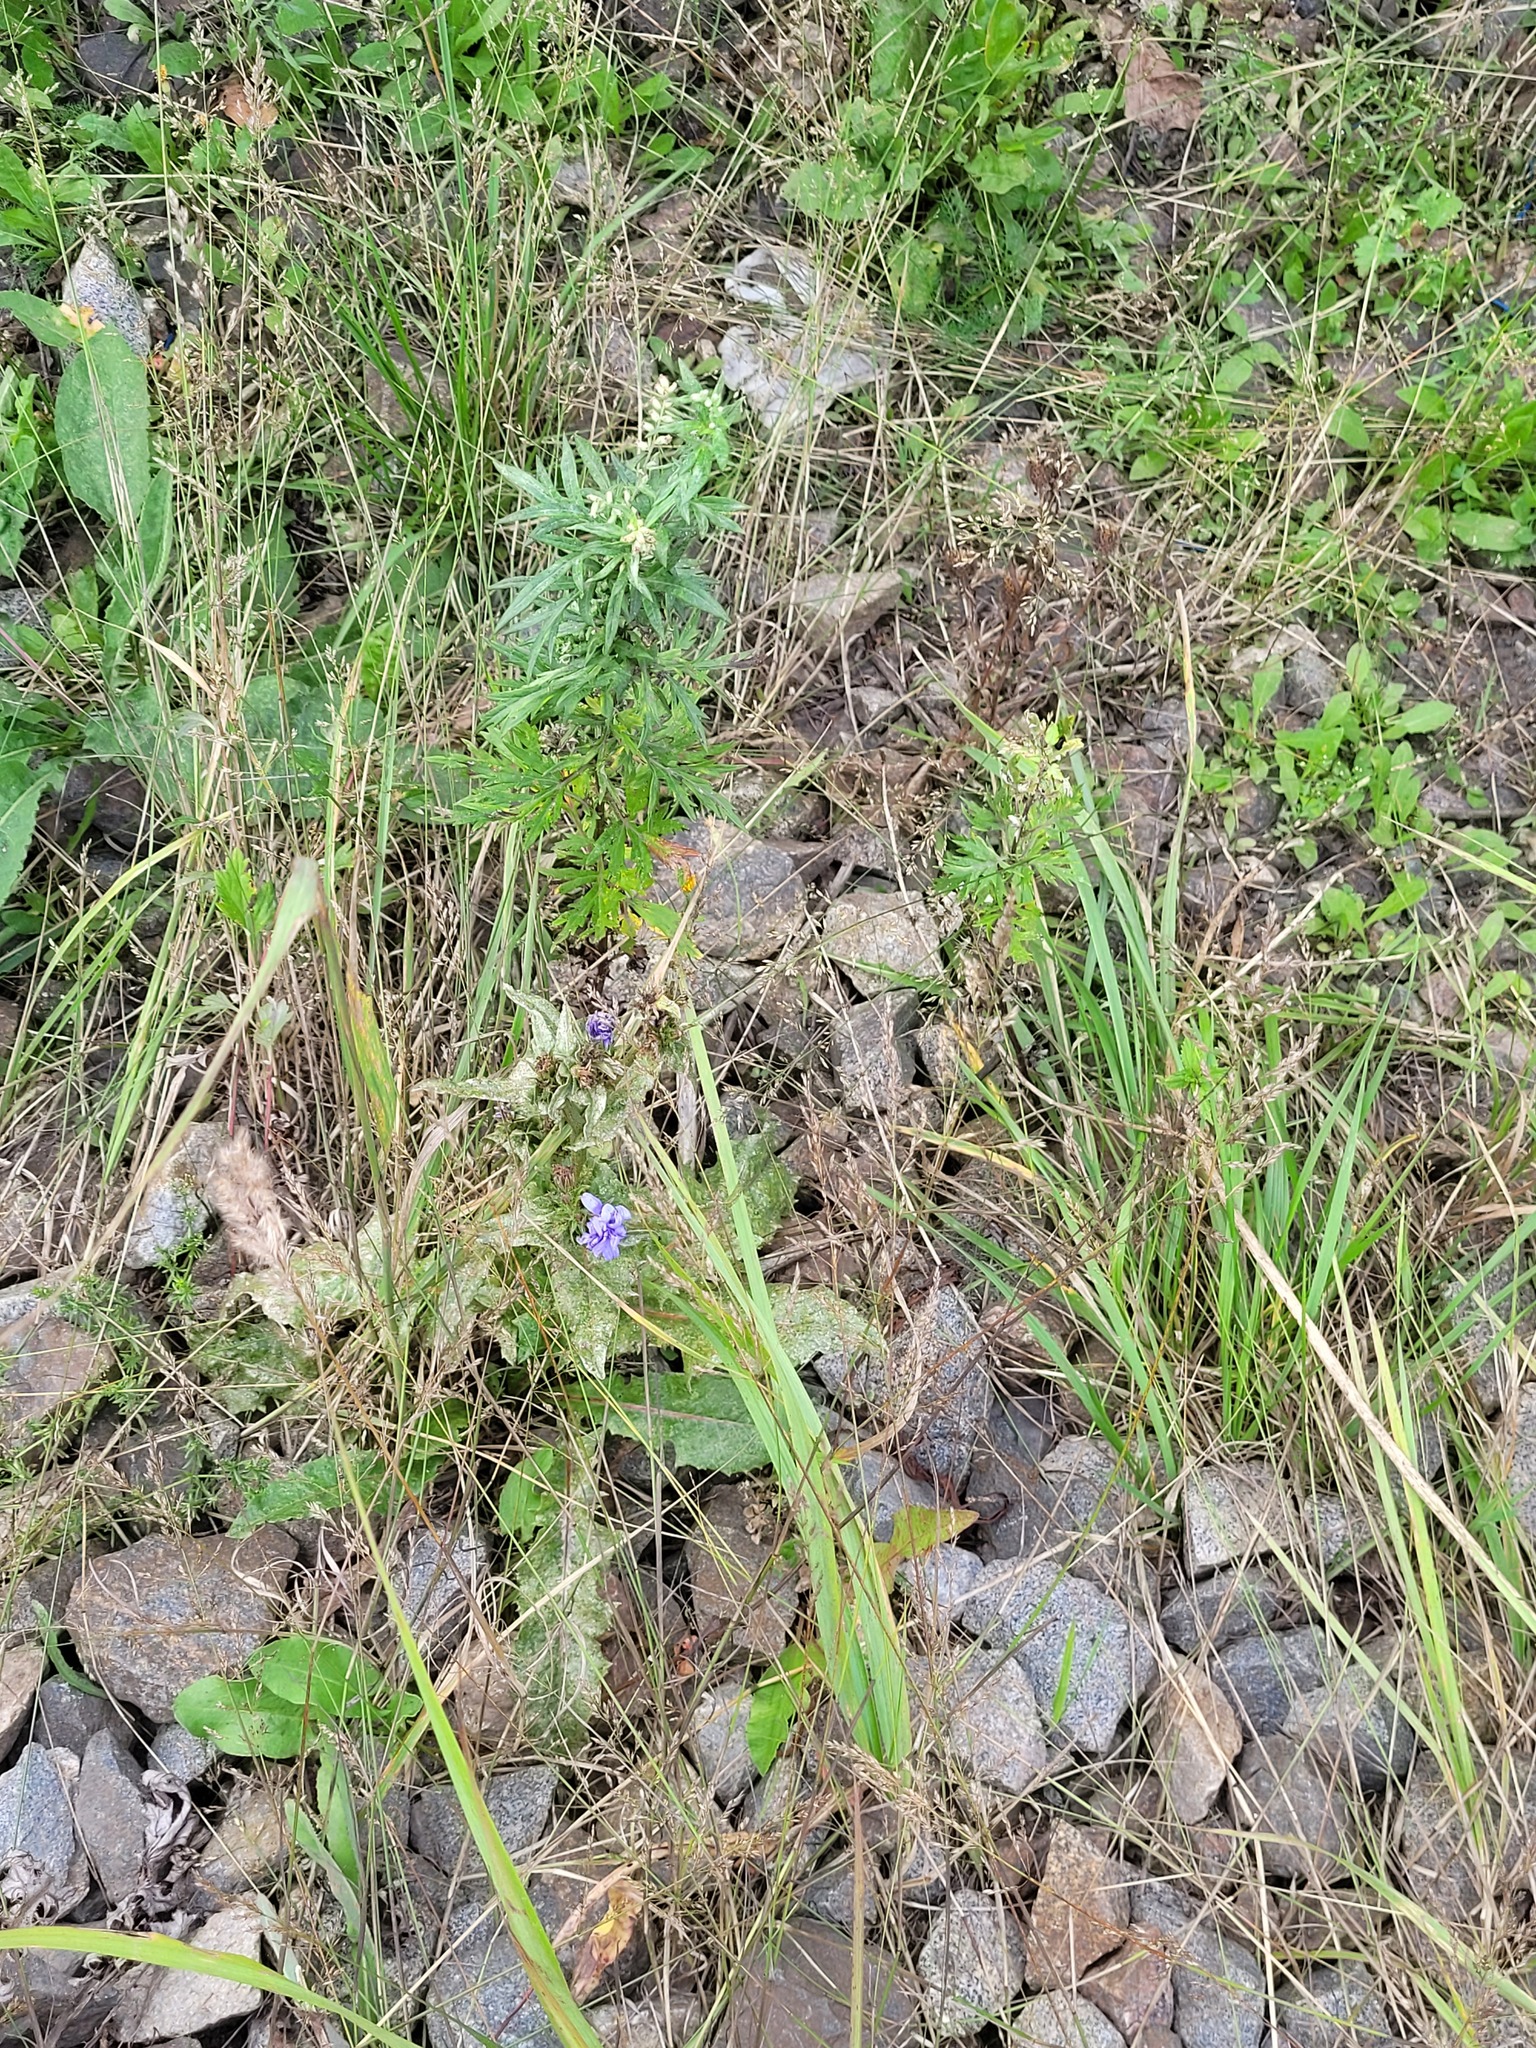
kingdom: Plantae
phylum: Tracheophyta
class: Magnoliopsida
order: Asterales
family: Asteraceae
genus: Cichorium
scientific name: Cichorium intybus
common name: Chicory
